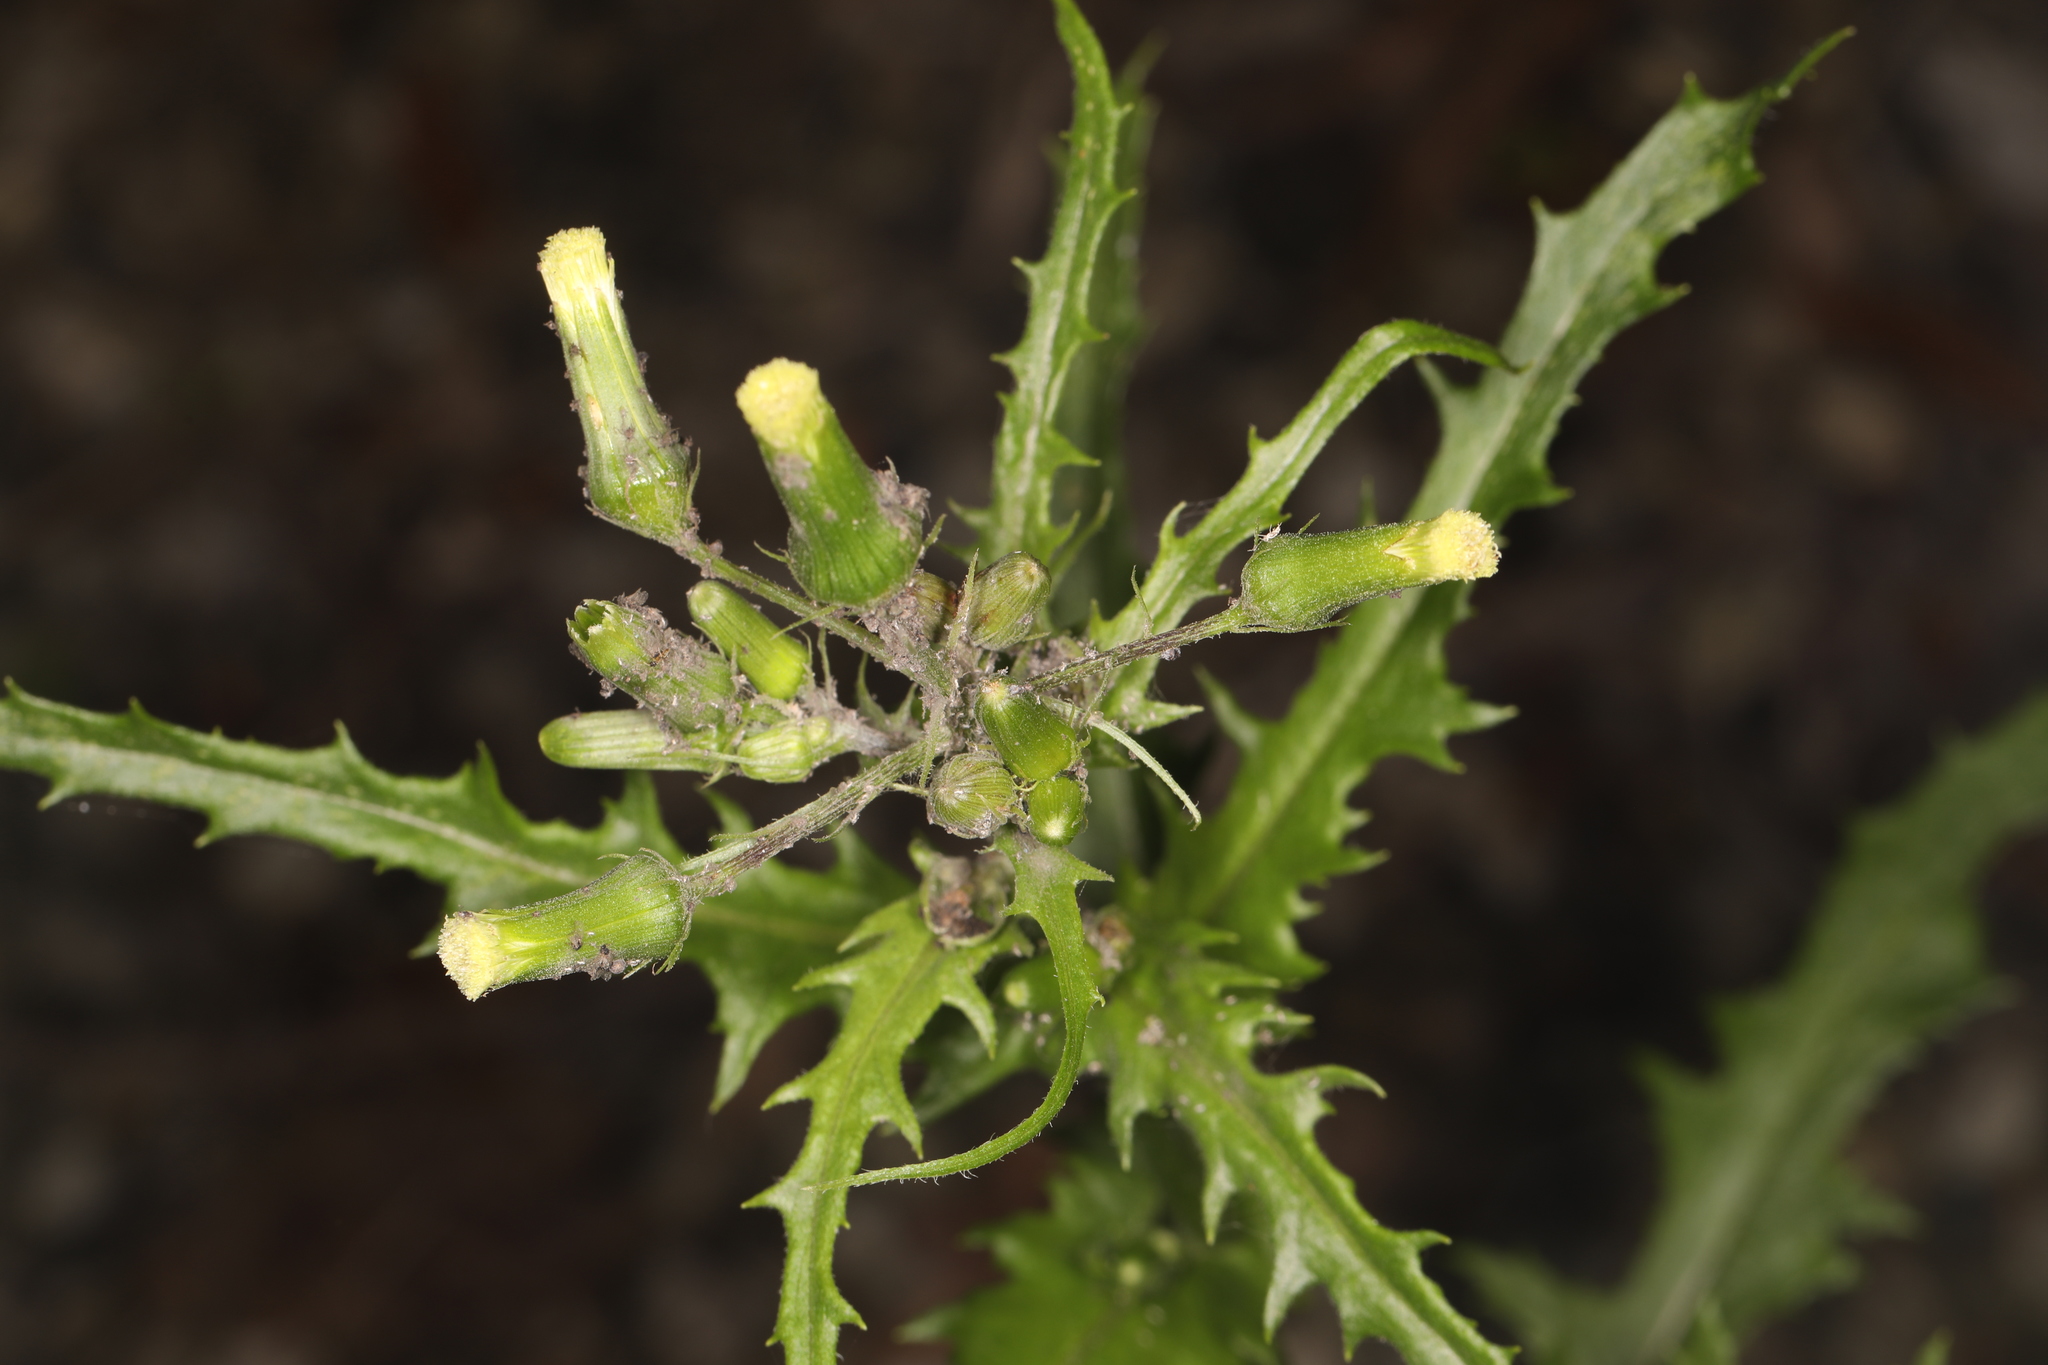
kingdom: Plantae
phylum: Tracheophyta
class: Magnoliopsida
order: Asterales
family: Asteraceae
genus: Erechtites
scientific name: Erechtites hieraciifolius
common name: American burnweed
